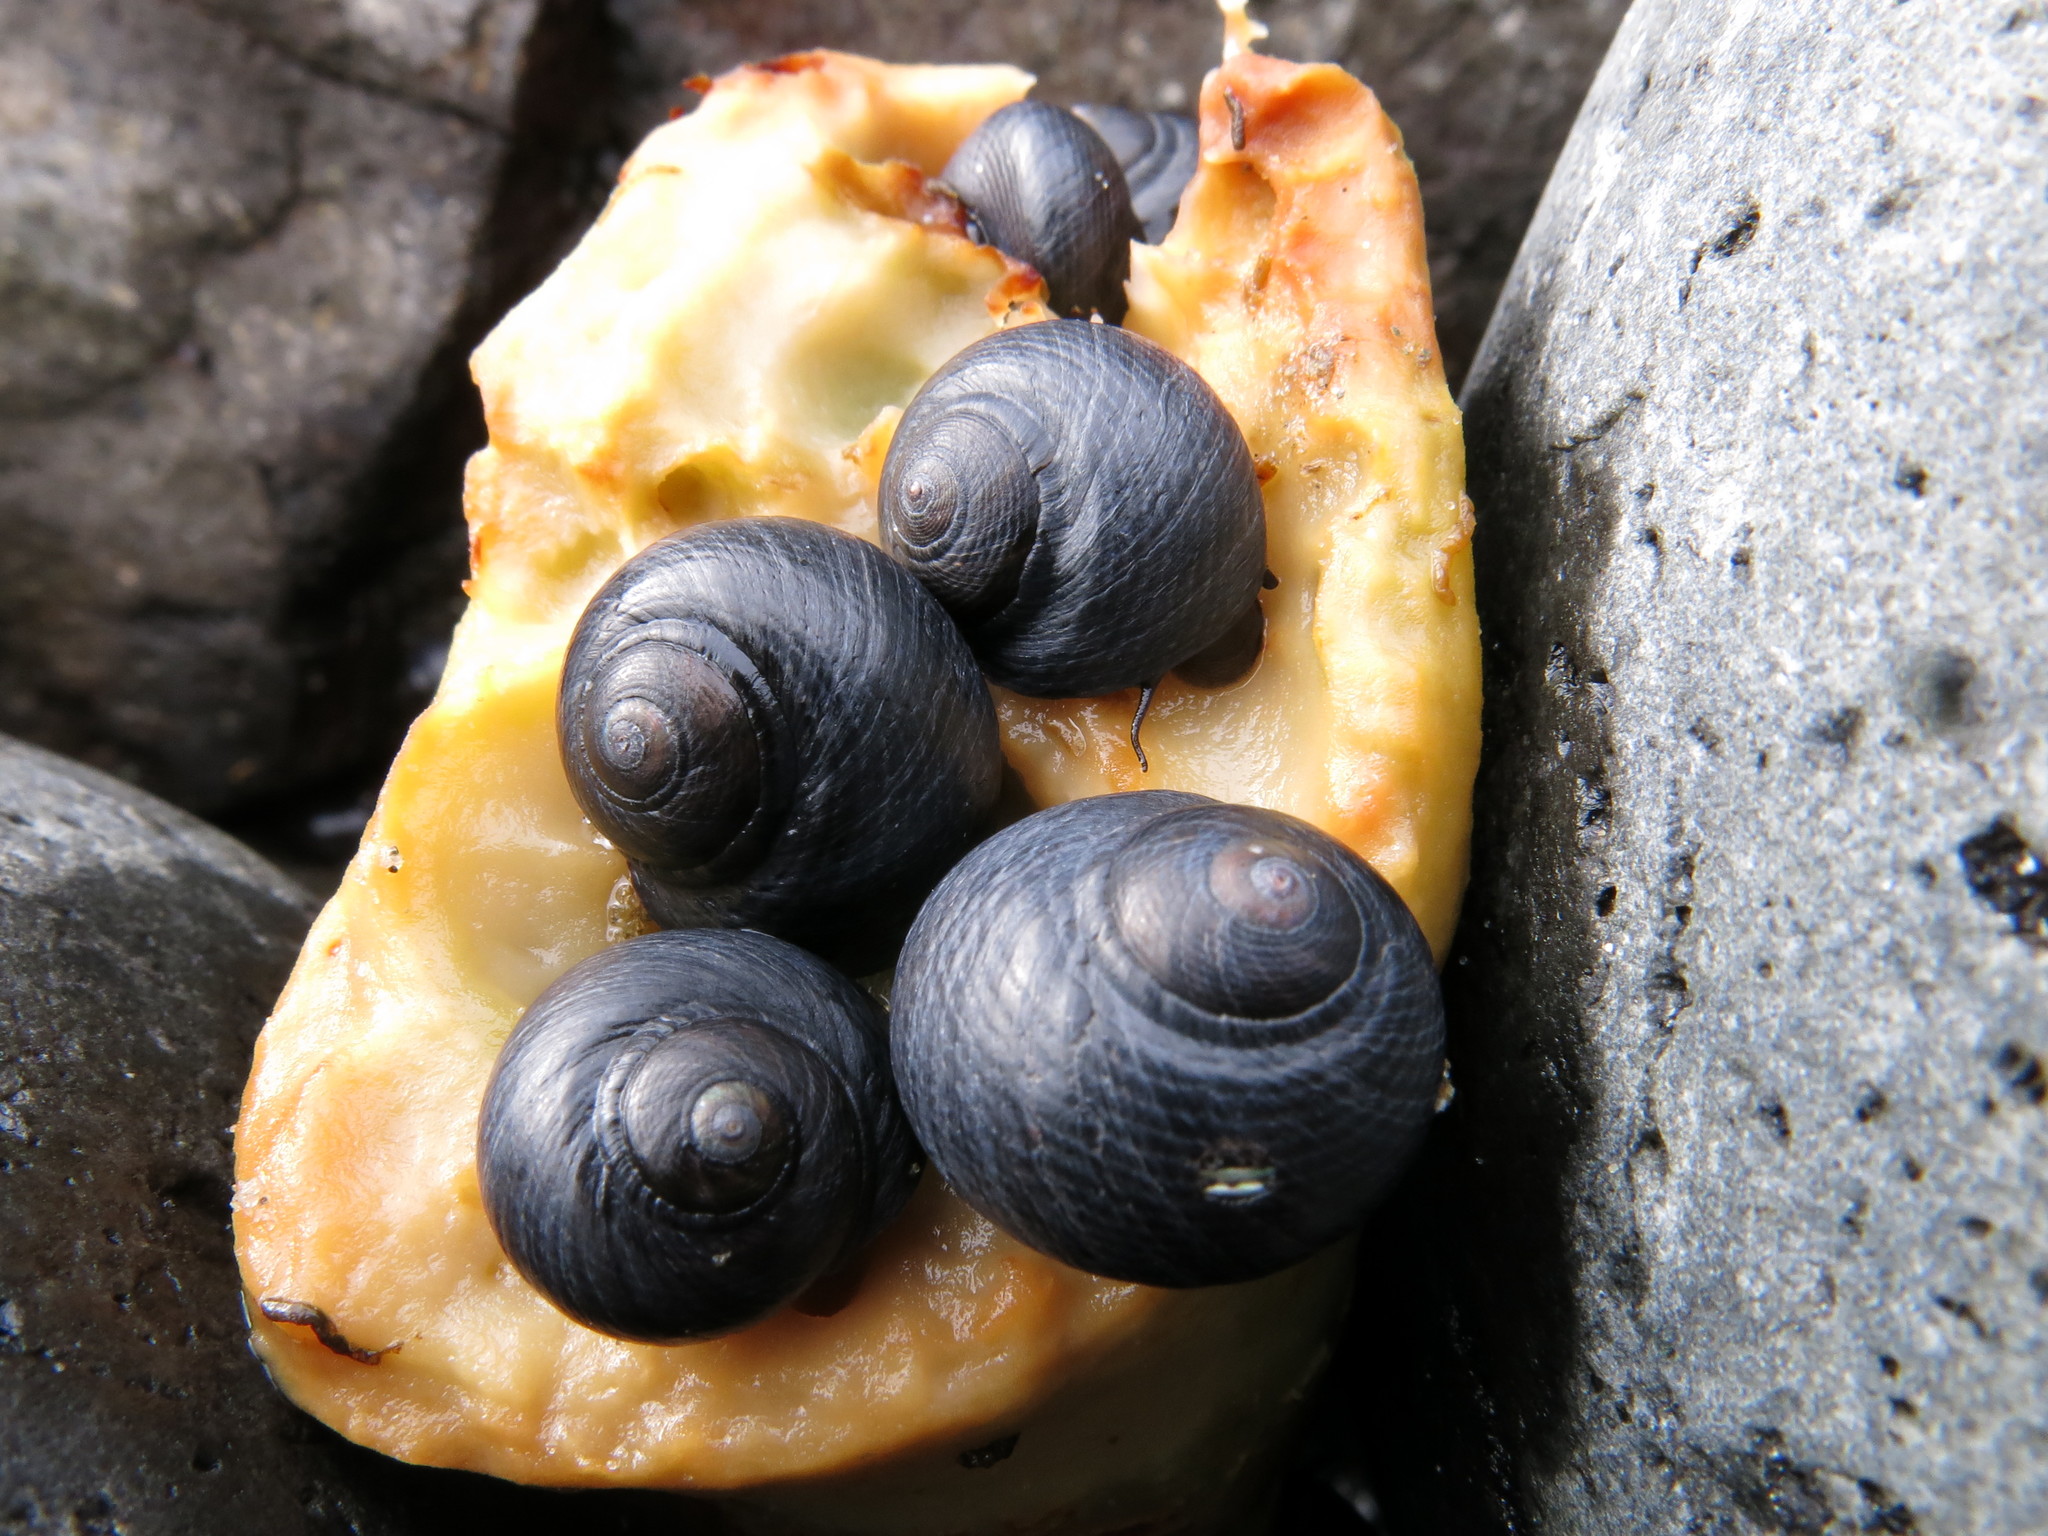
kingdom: Animalia
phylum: Mollusca
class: Gastropoda
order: Trochida
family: Trochidae
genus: Diloma
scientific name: Diloma nigerrimum
